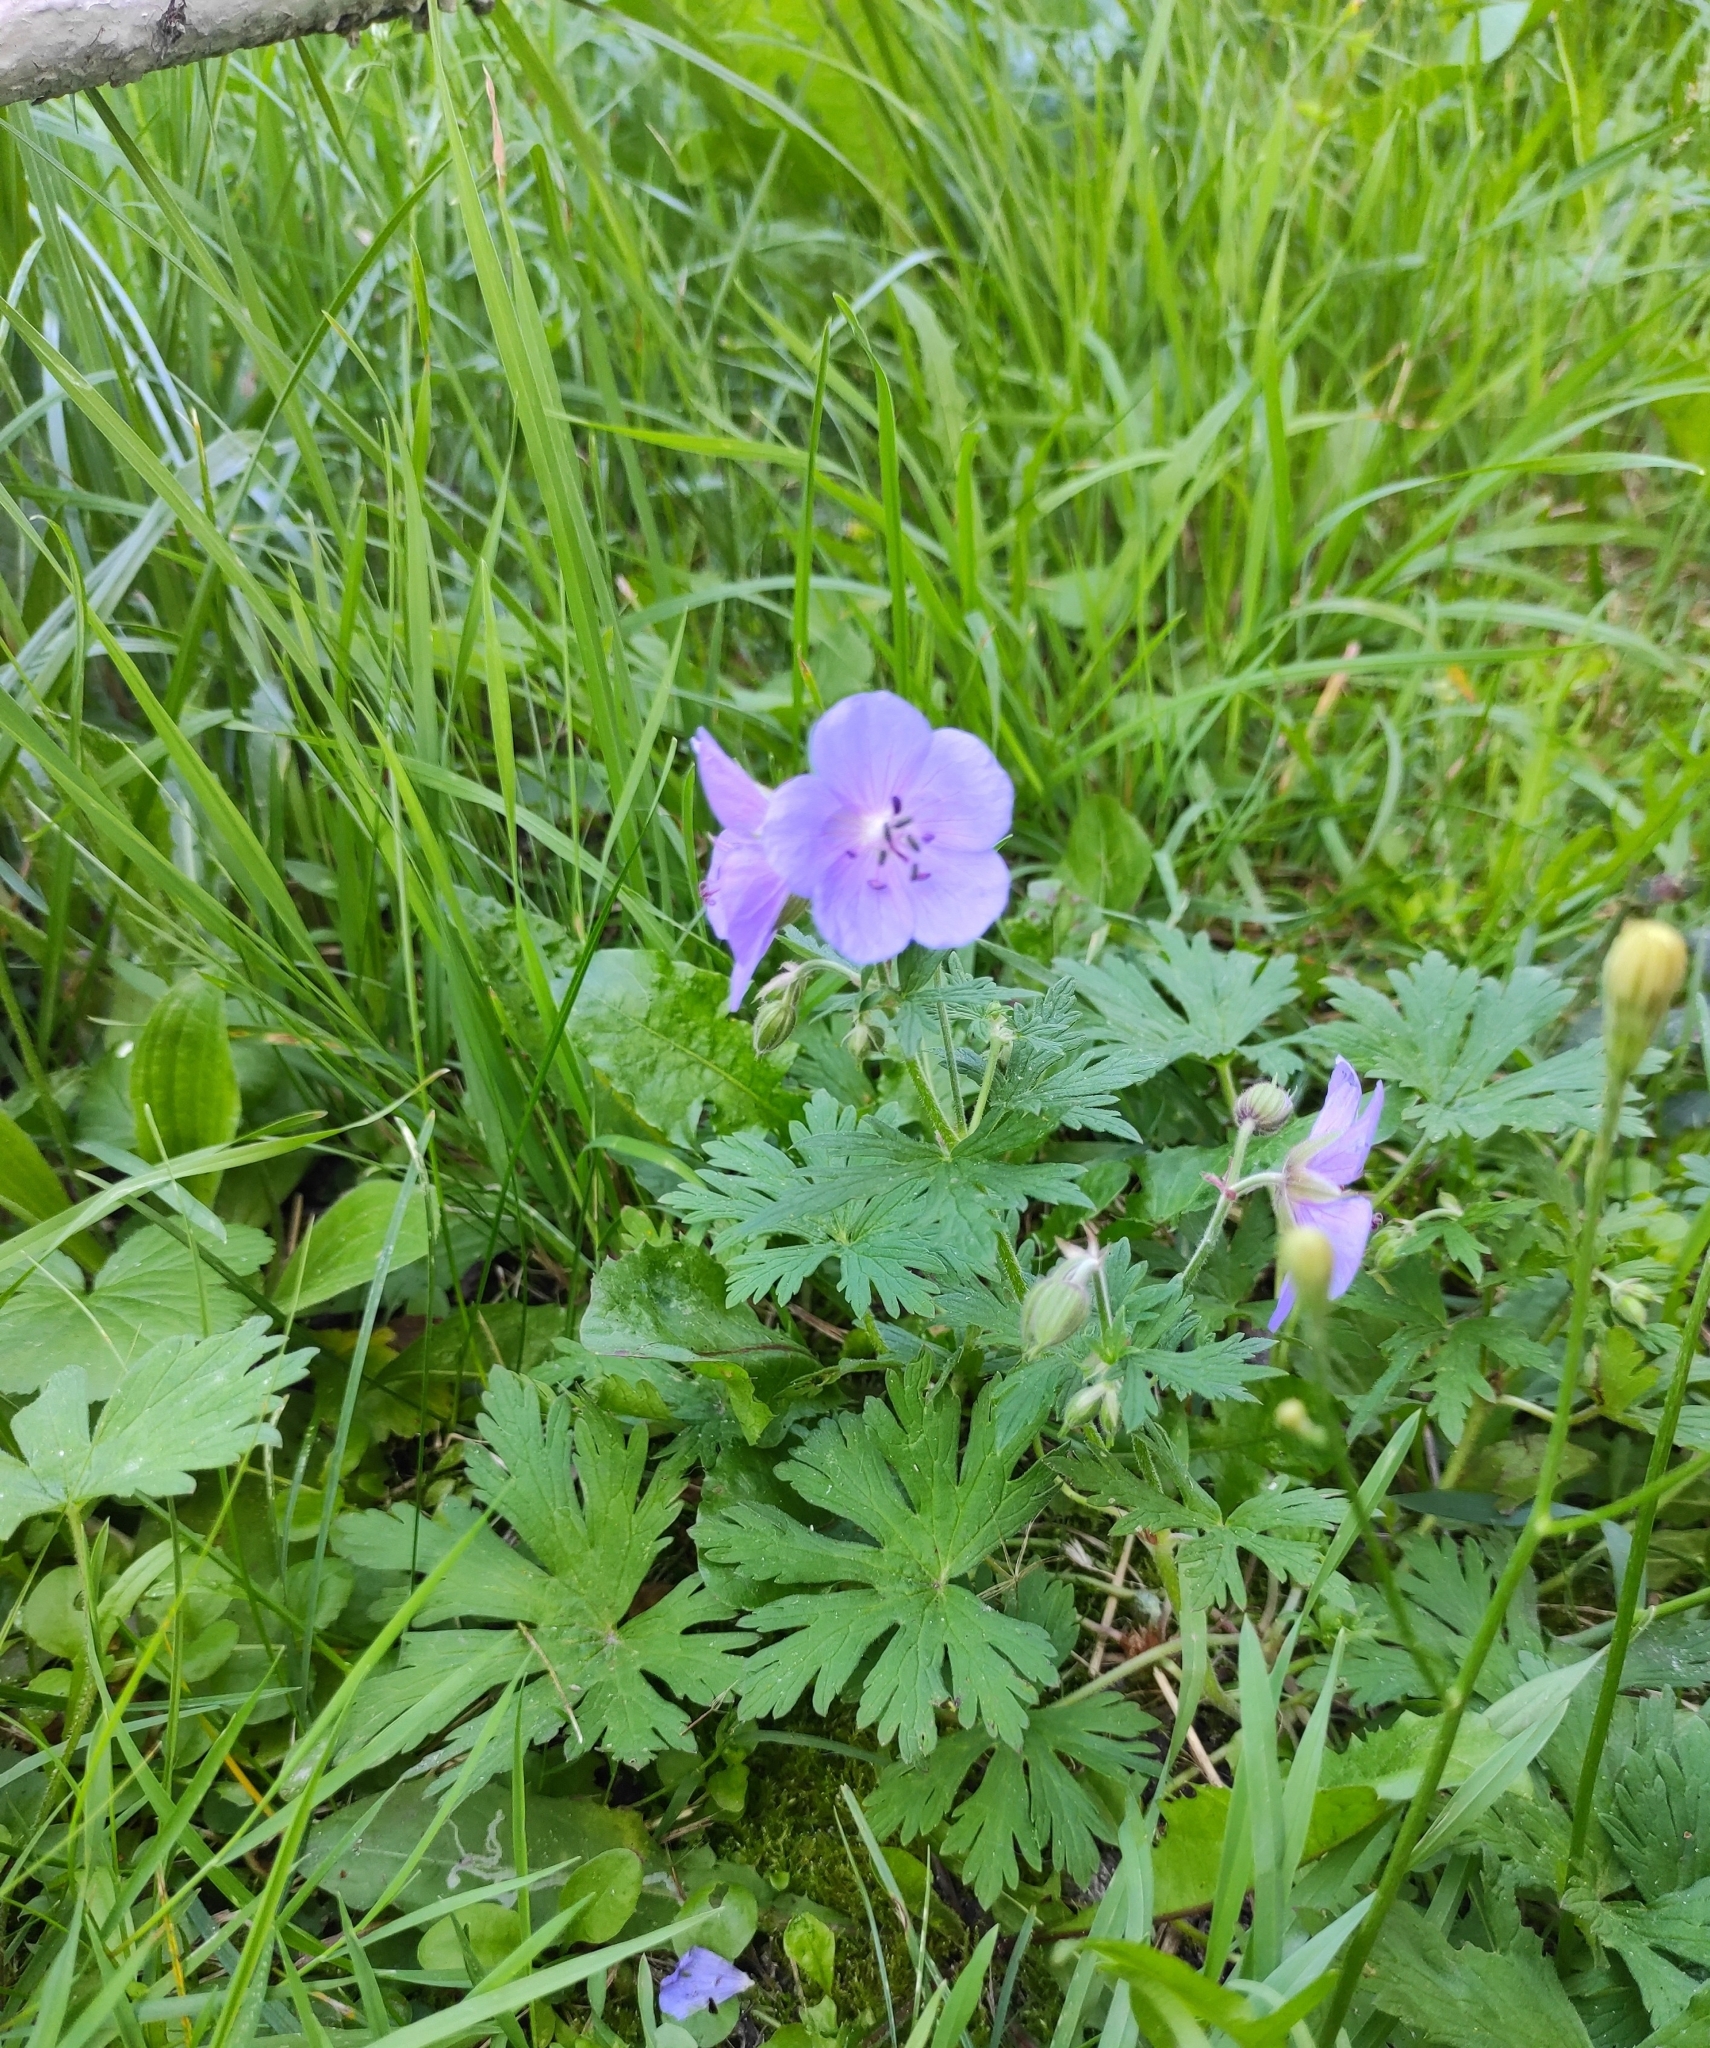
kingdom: Plantae
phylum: Tracheophyta
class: Magnoliopsida
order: Geraniales
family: Geraniaceae
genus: Geranium
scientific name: Geranium pratense
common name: Meadow crane's-bill
